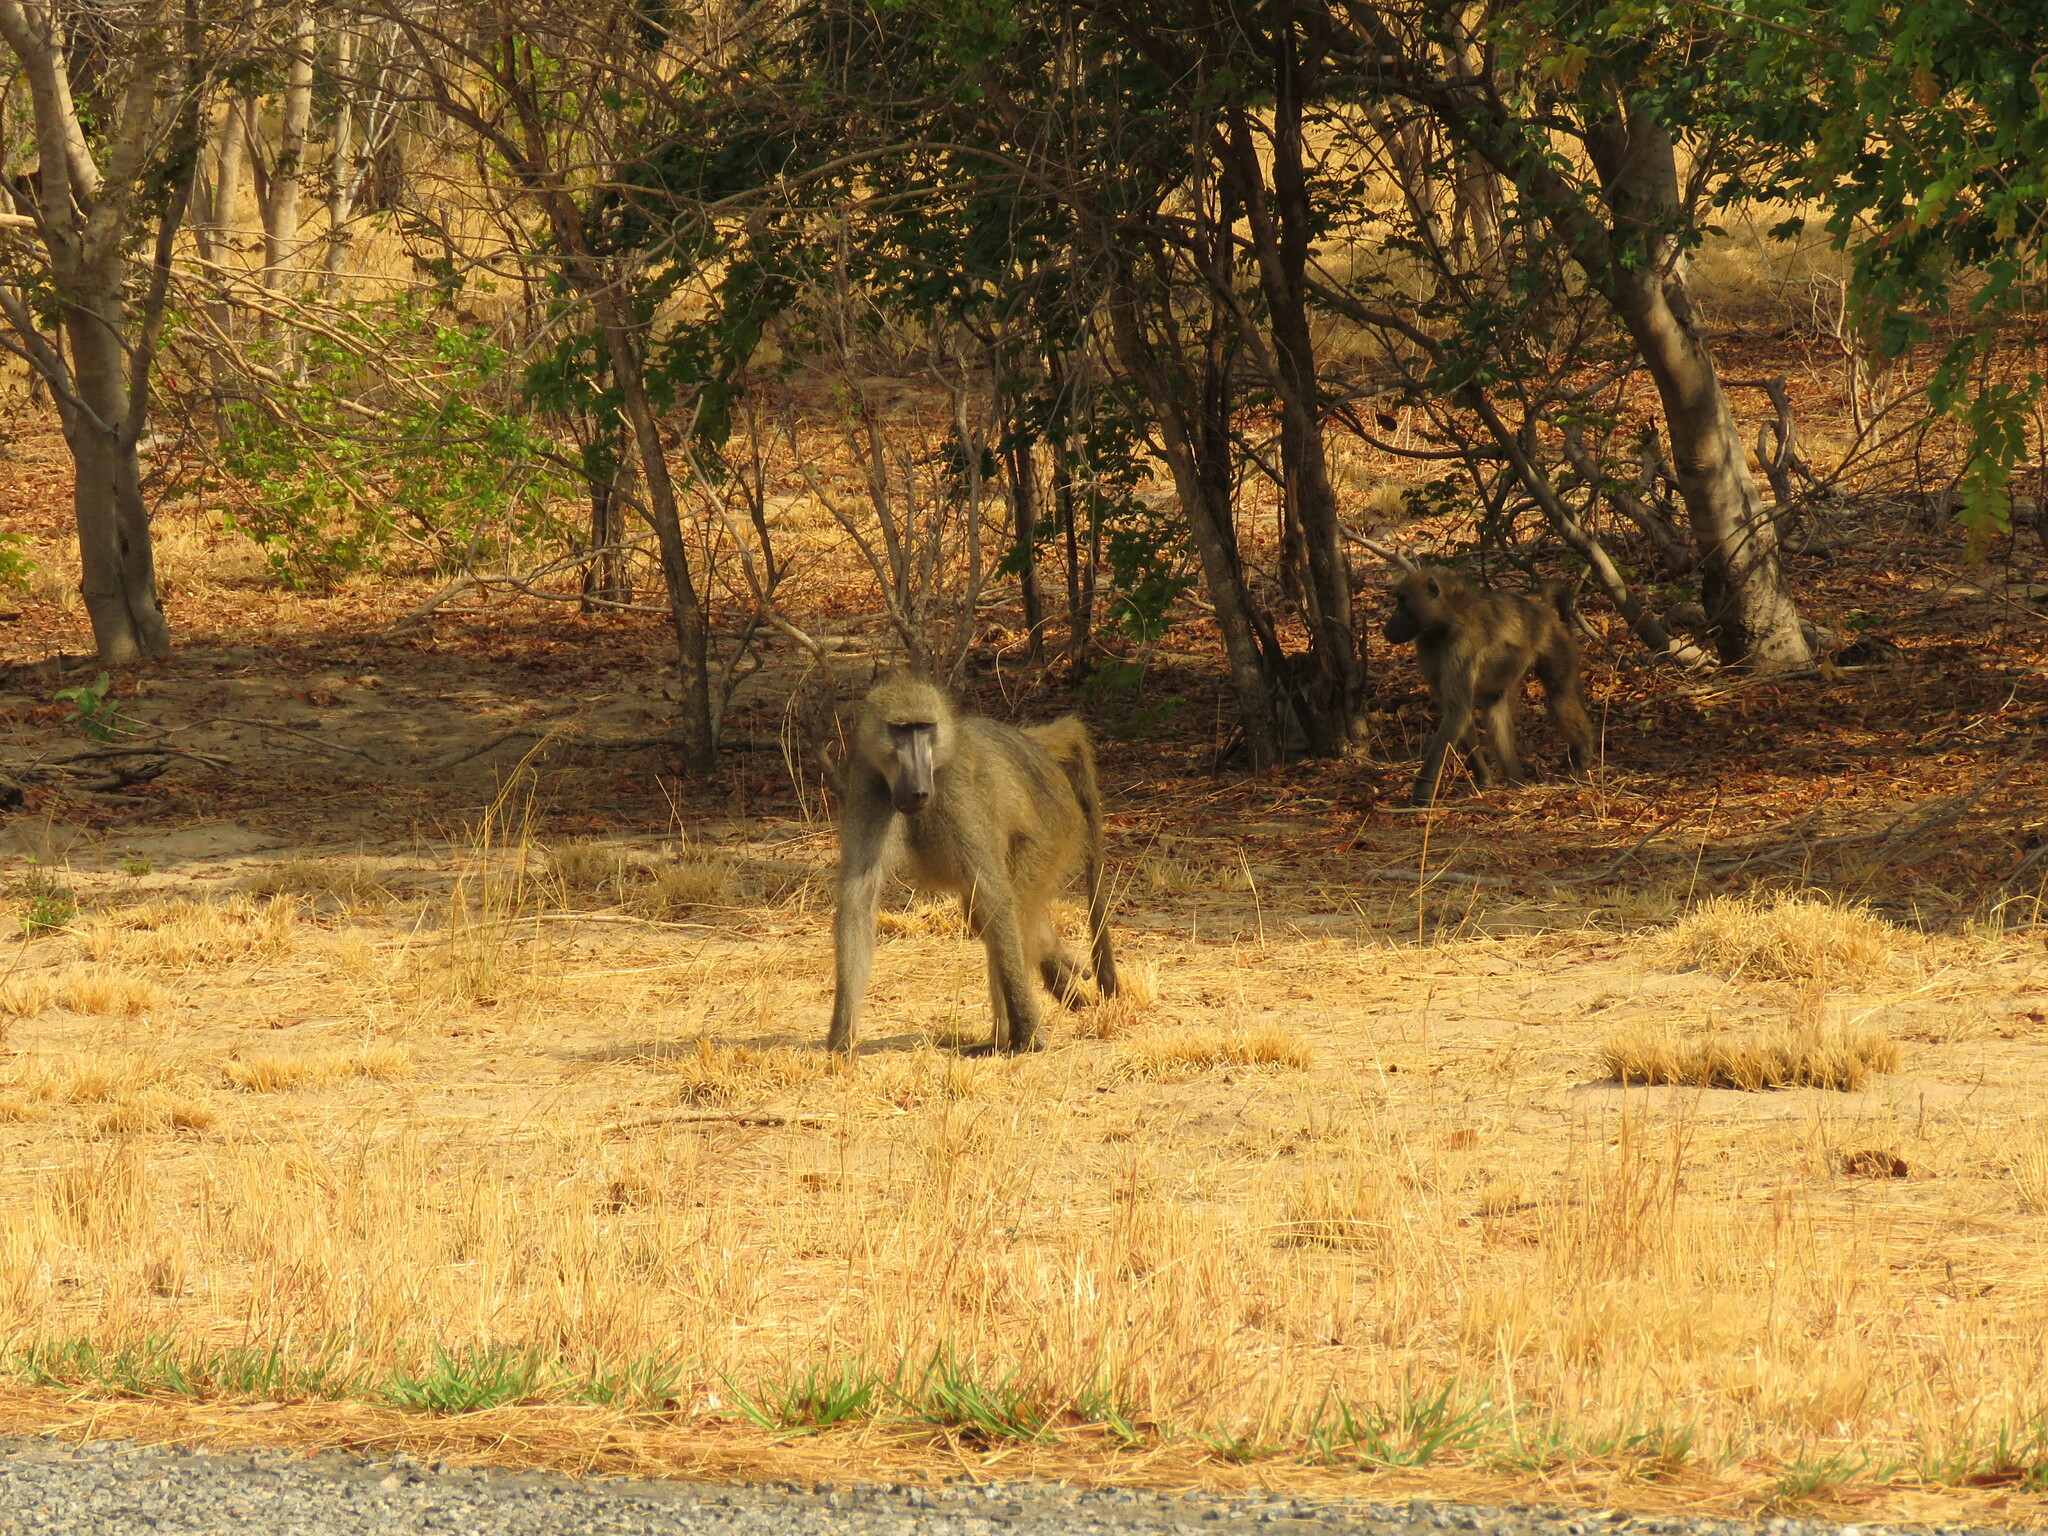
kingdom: Animalia
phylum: Chordata
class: Mammalia
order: Primates
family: Cercopithecidae
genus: Papio
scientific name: Papio ursinus
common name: Chacma baboon
